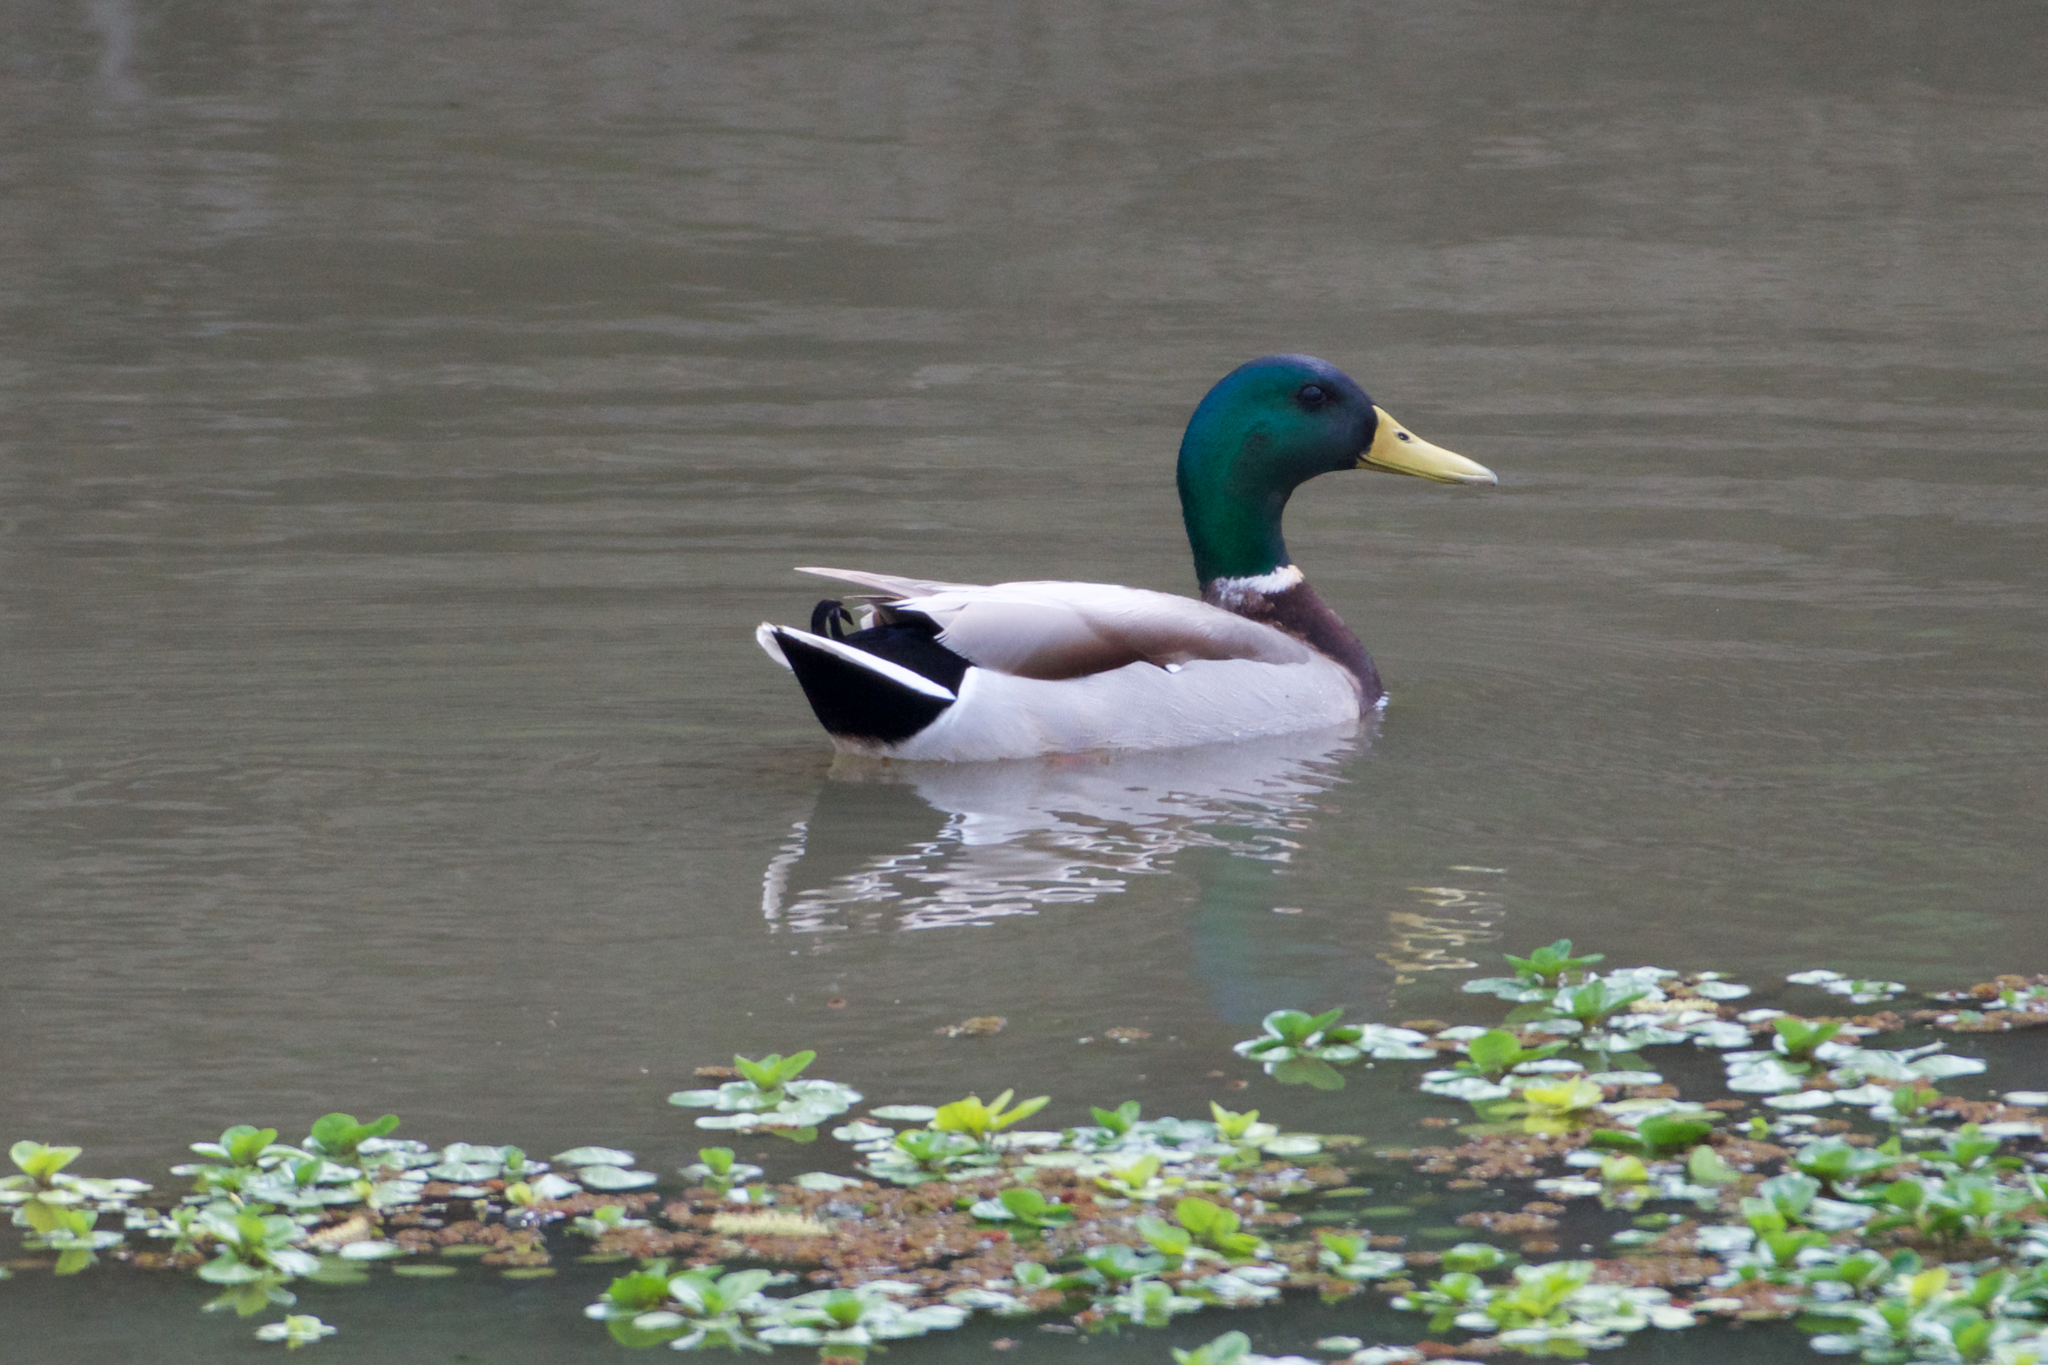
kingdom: Animalia
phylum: Chordata
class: Aves
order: Anseriformes
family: Anatidae
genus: Anas
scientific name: Anas platyrhynchos
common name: Mallard
